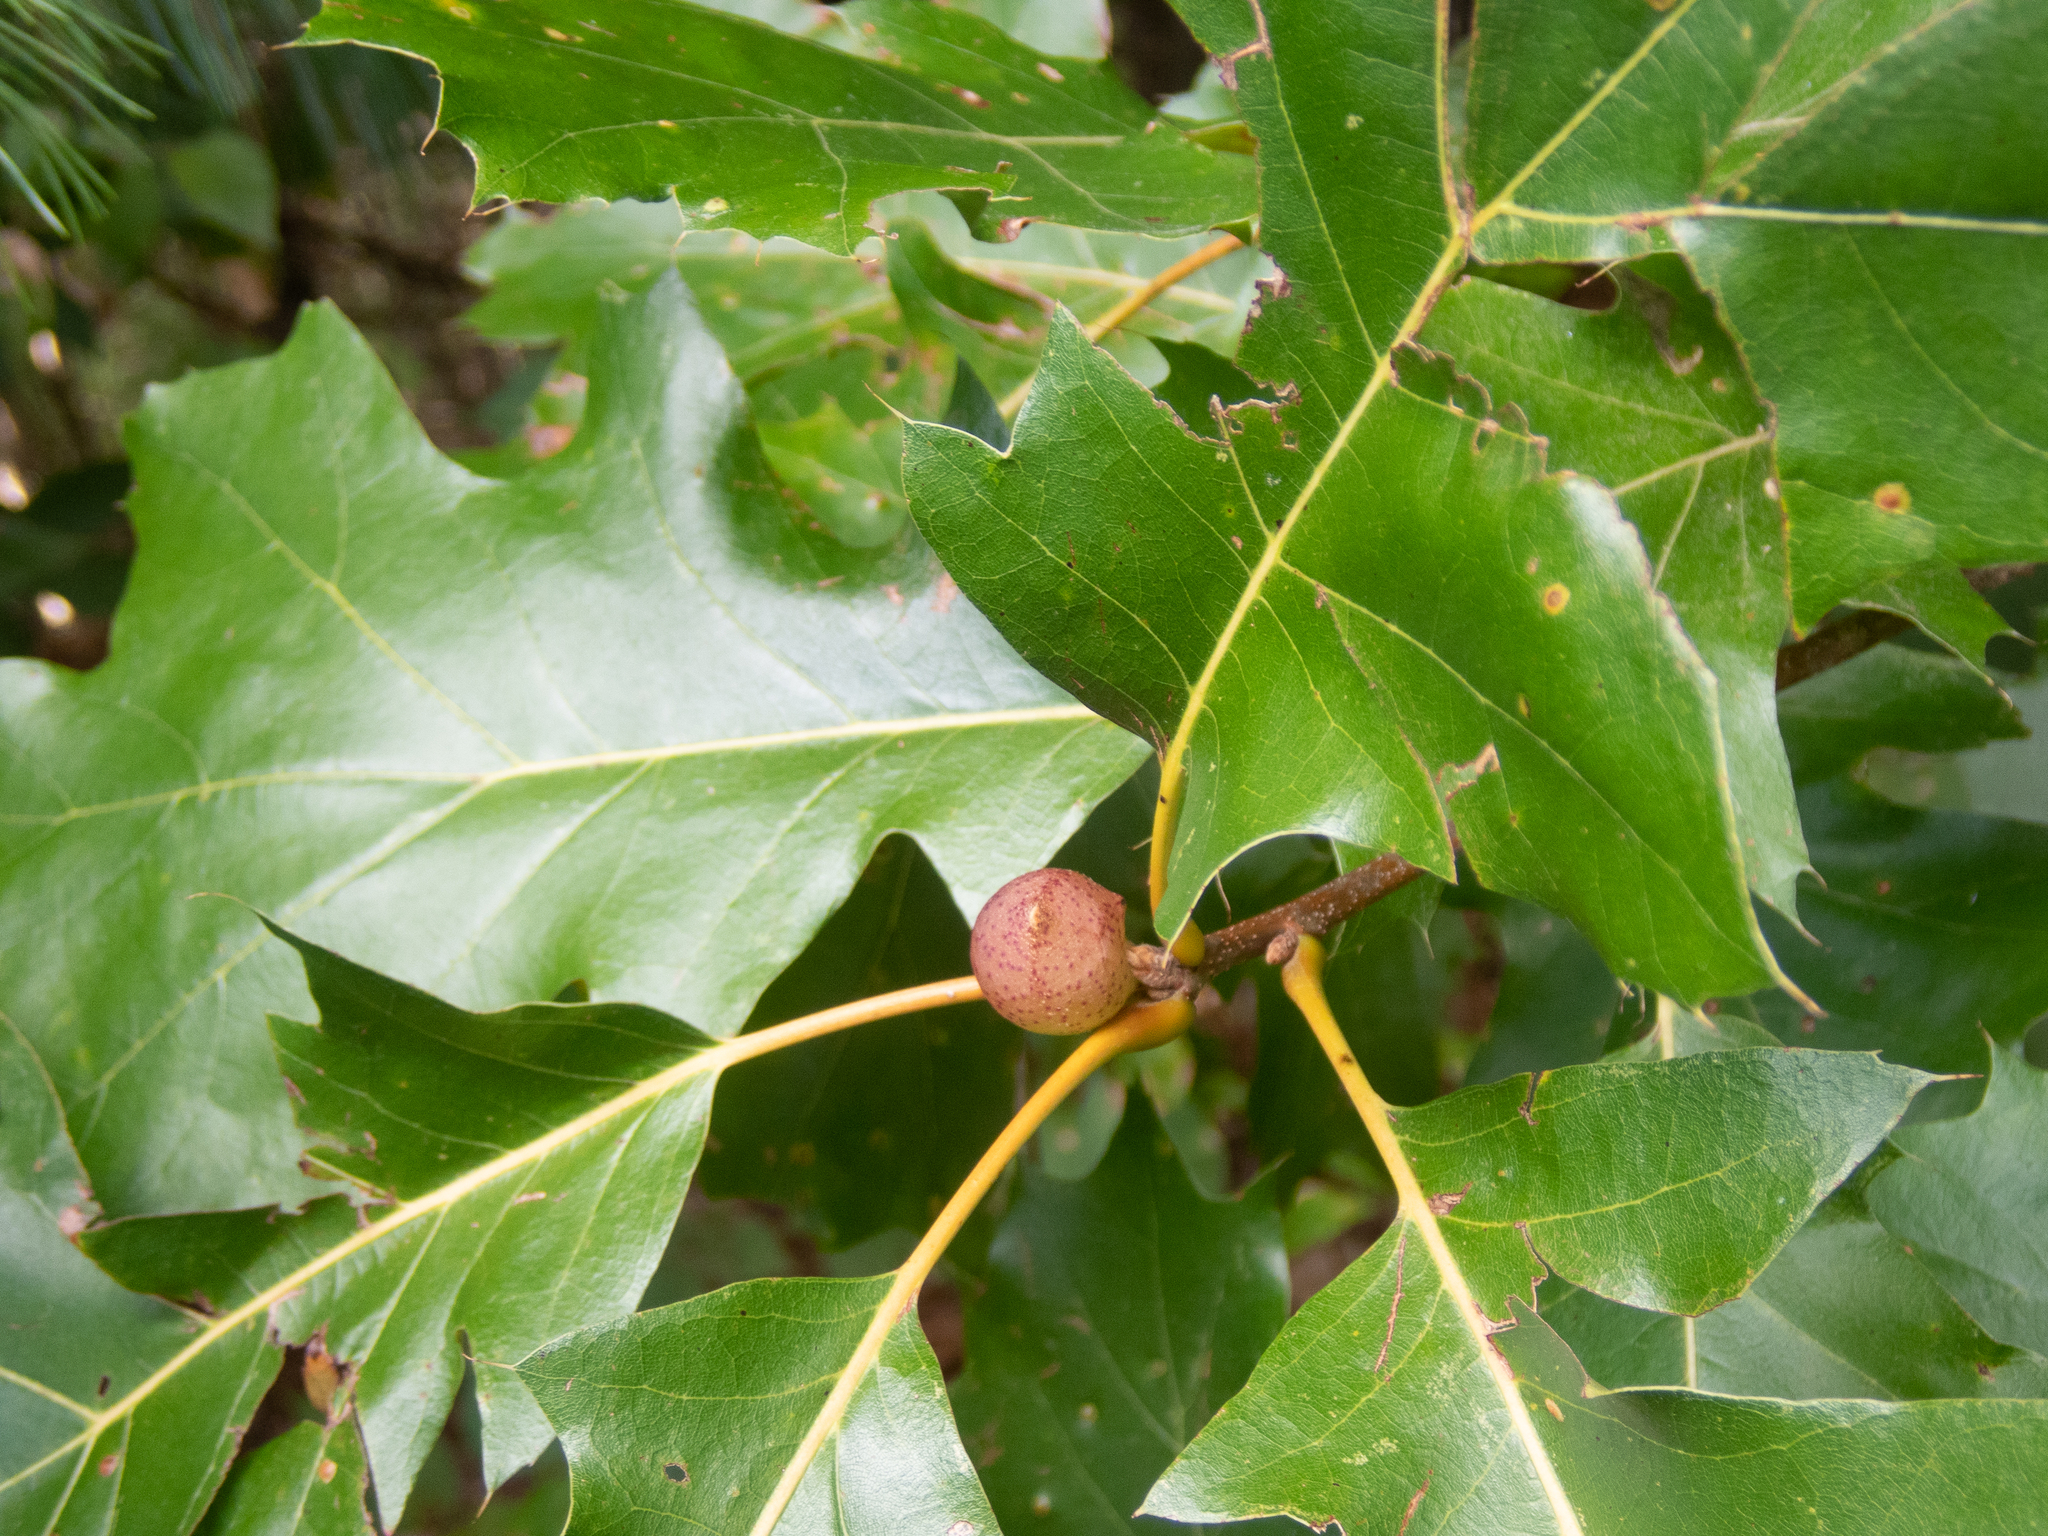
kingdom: Animalia
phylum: Arthropoda
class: Insecta
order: Hymenoptera
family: Cynipidae
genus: Amphibolips
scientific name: Amphibolips
